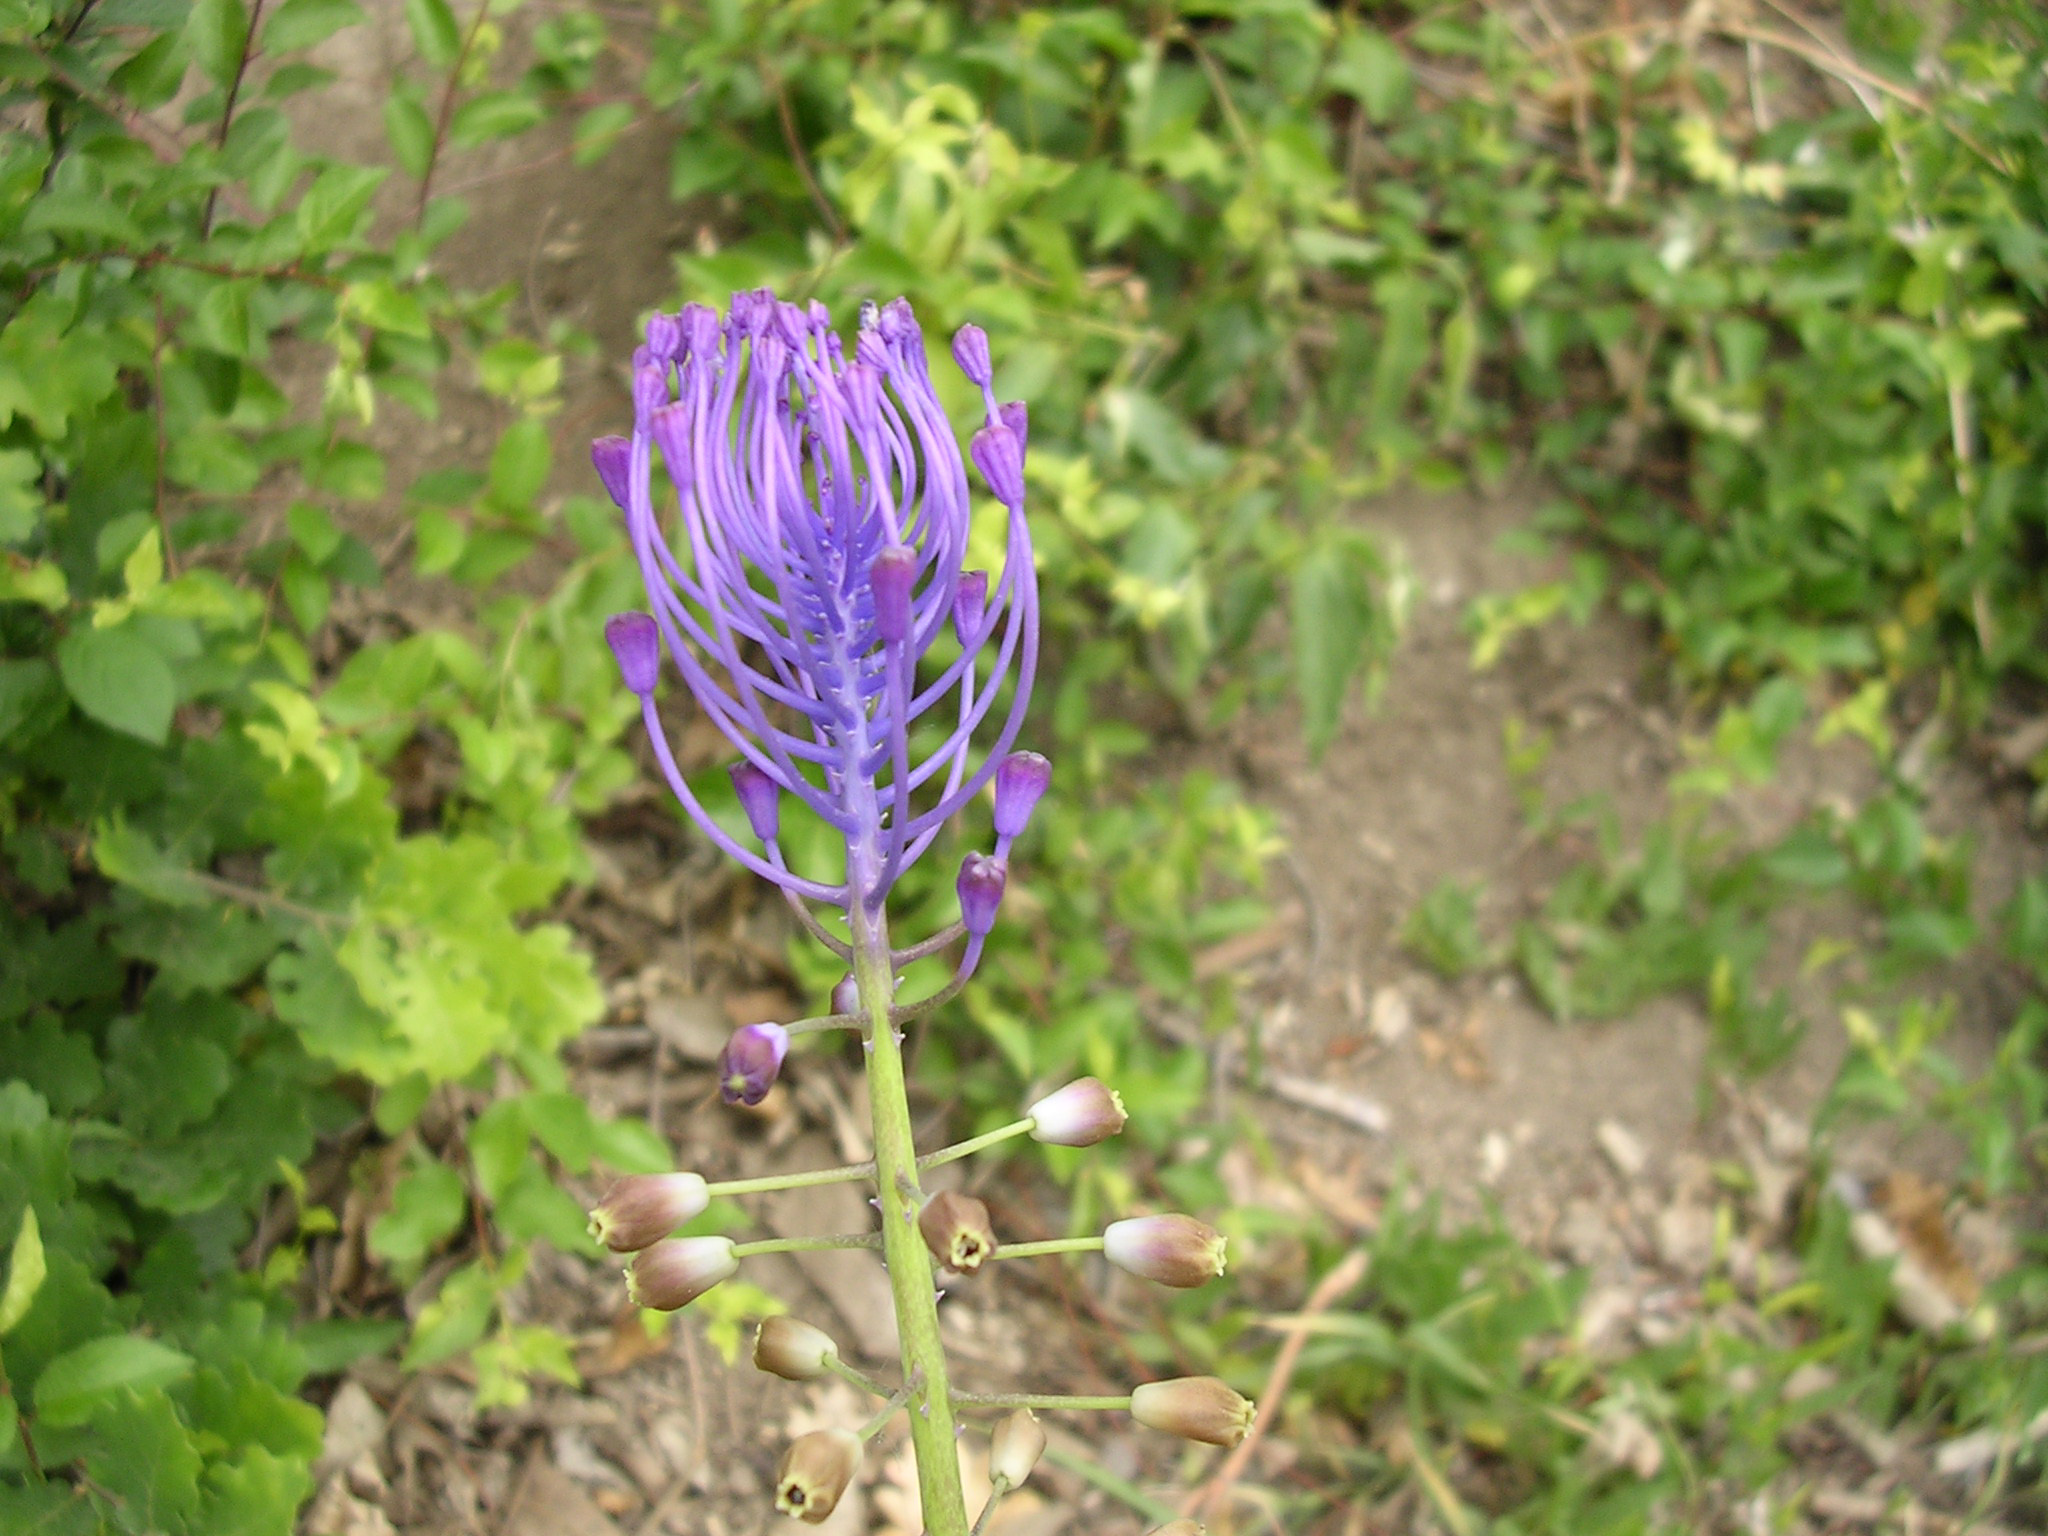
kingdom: Plantae
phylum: Tracheophyta
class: Liliopsida
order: Asparagales
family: Asparagaceae
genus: Muscari
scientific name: Muscari comosum
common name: Tassel hyacinth
